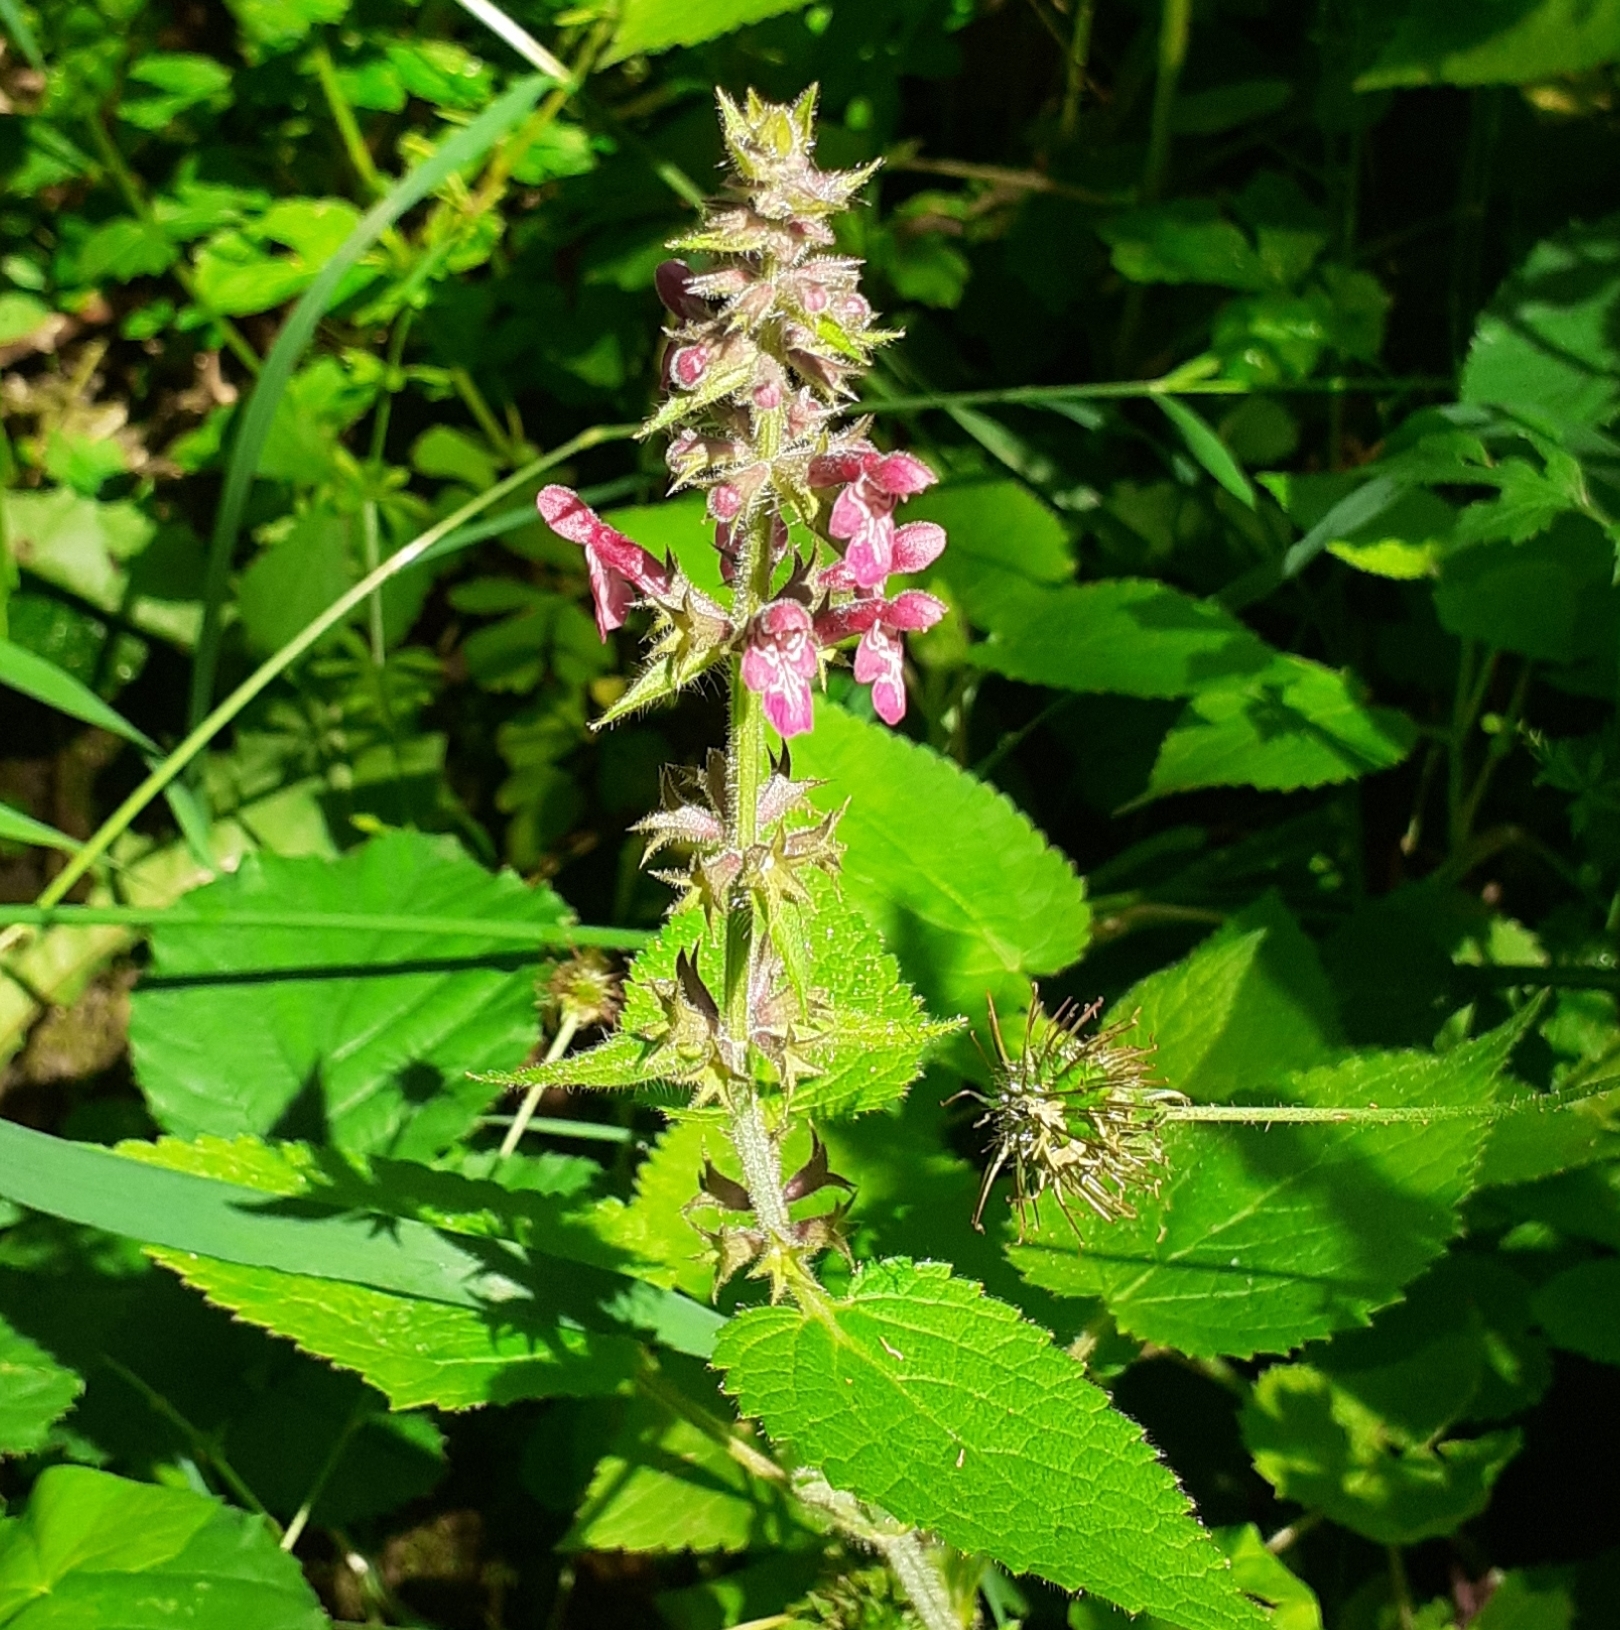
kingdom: Plantae
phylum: Tracheophyta
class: Magnoliopsida
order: Lamiales
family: Lamiaceae
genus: Stachys
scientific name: Stachys sylvatica
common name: Hedge woundwort
